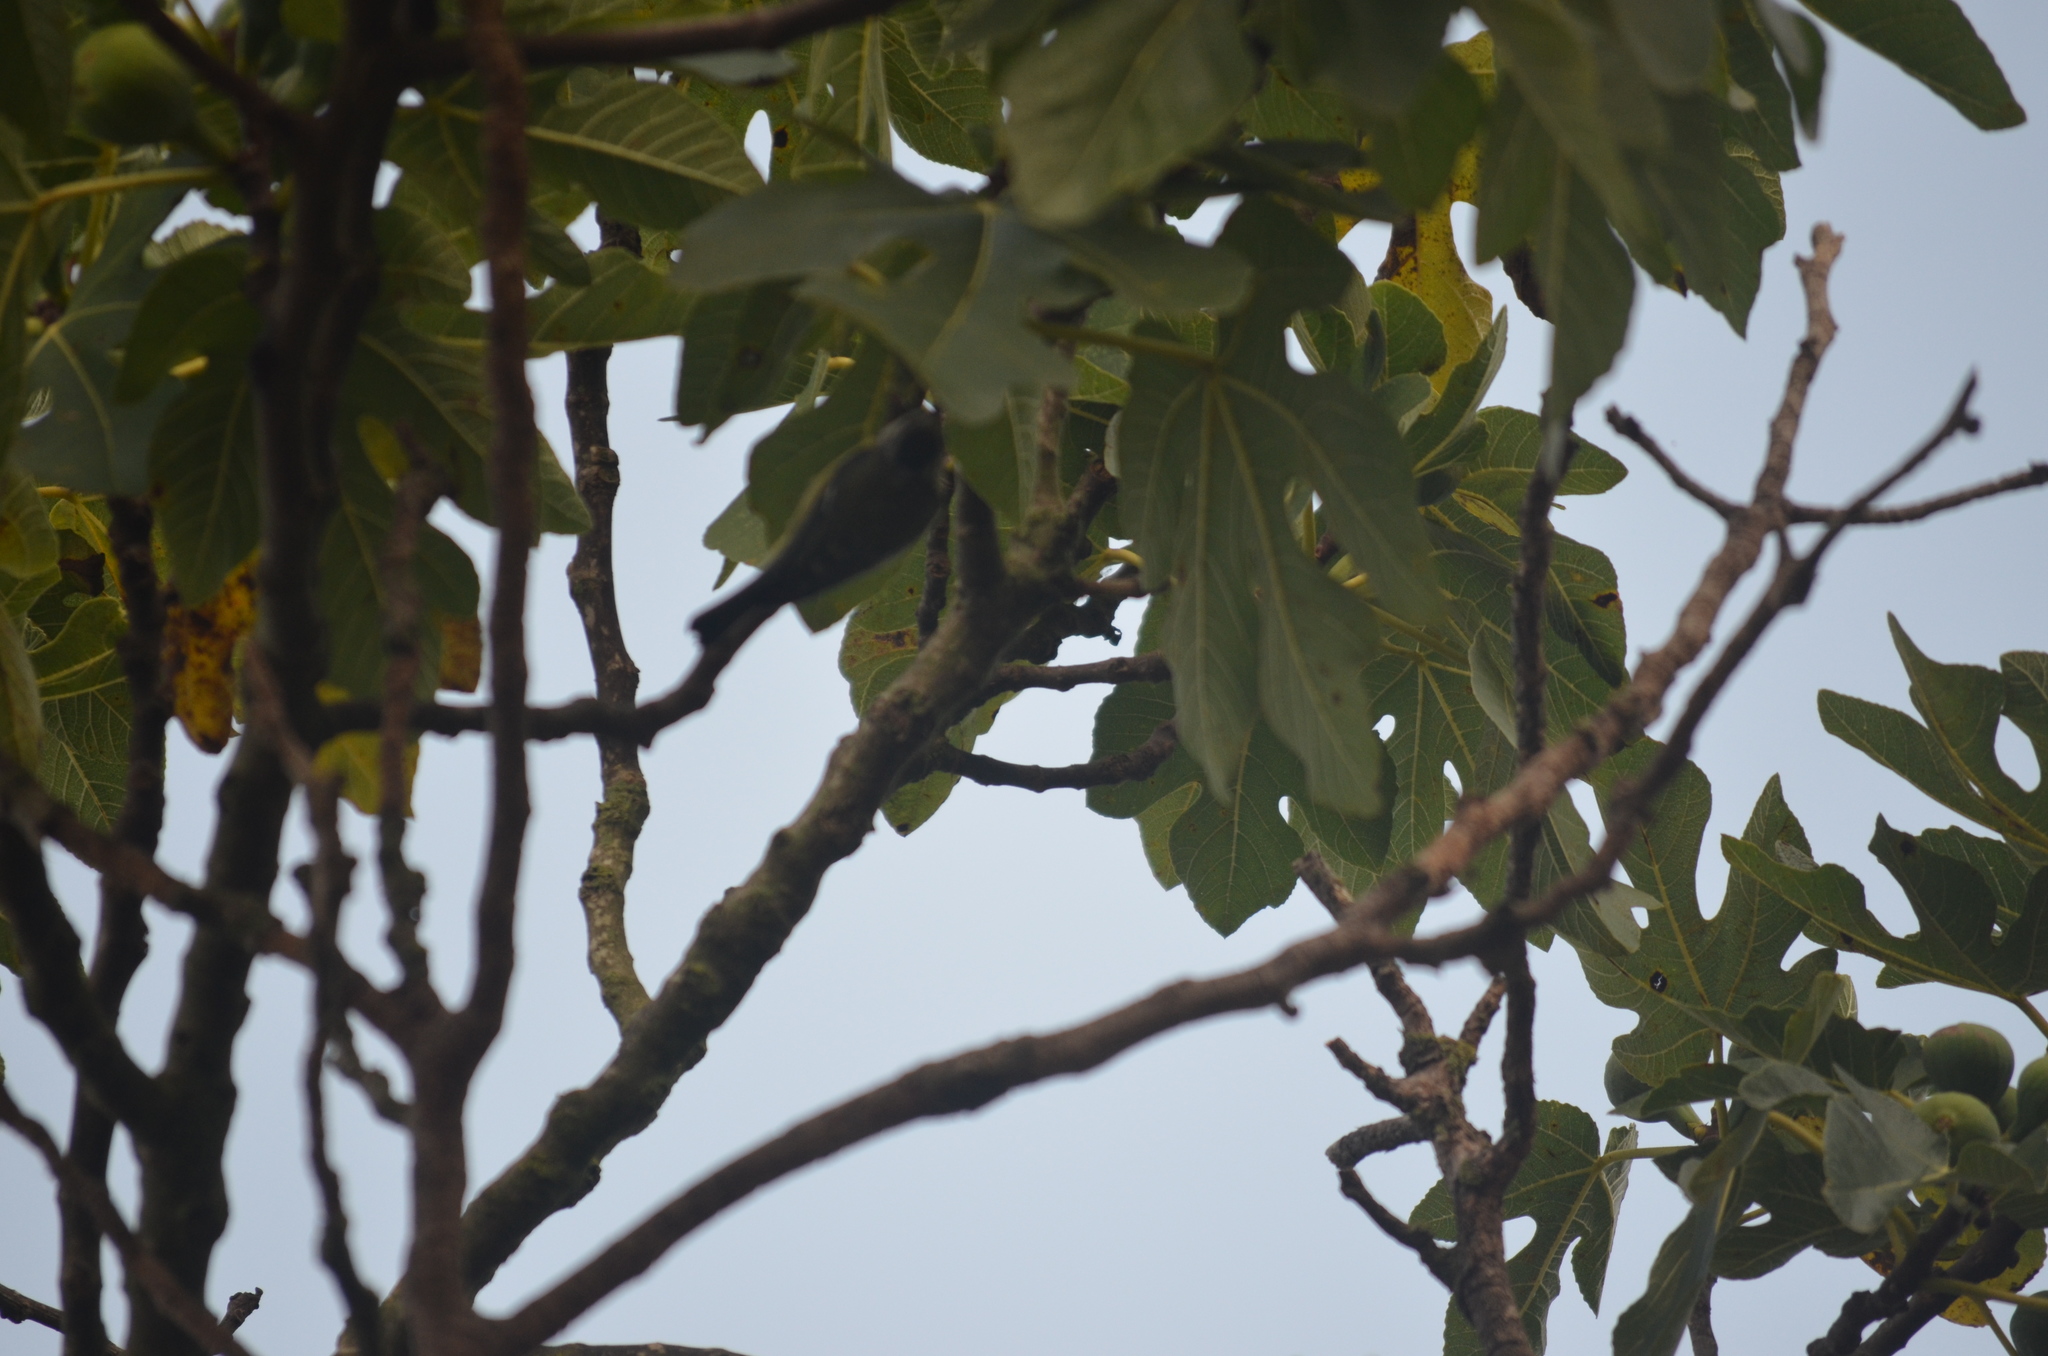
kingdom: Animalia
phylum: Chordata
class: Aves
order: Passeriformes
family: Paridae
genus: Cyanistes
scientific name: Cyanistes caeruleus
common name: Eurasian blue tit
